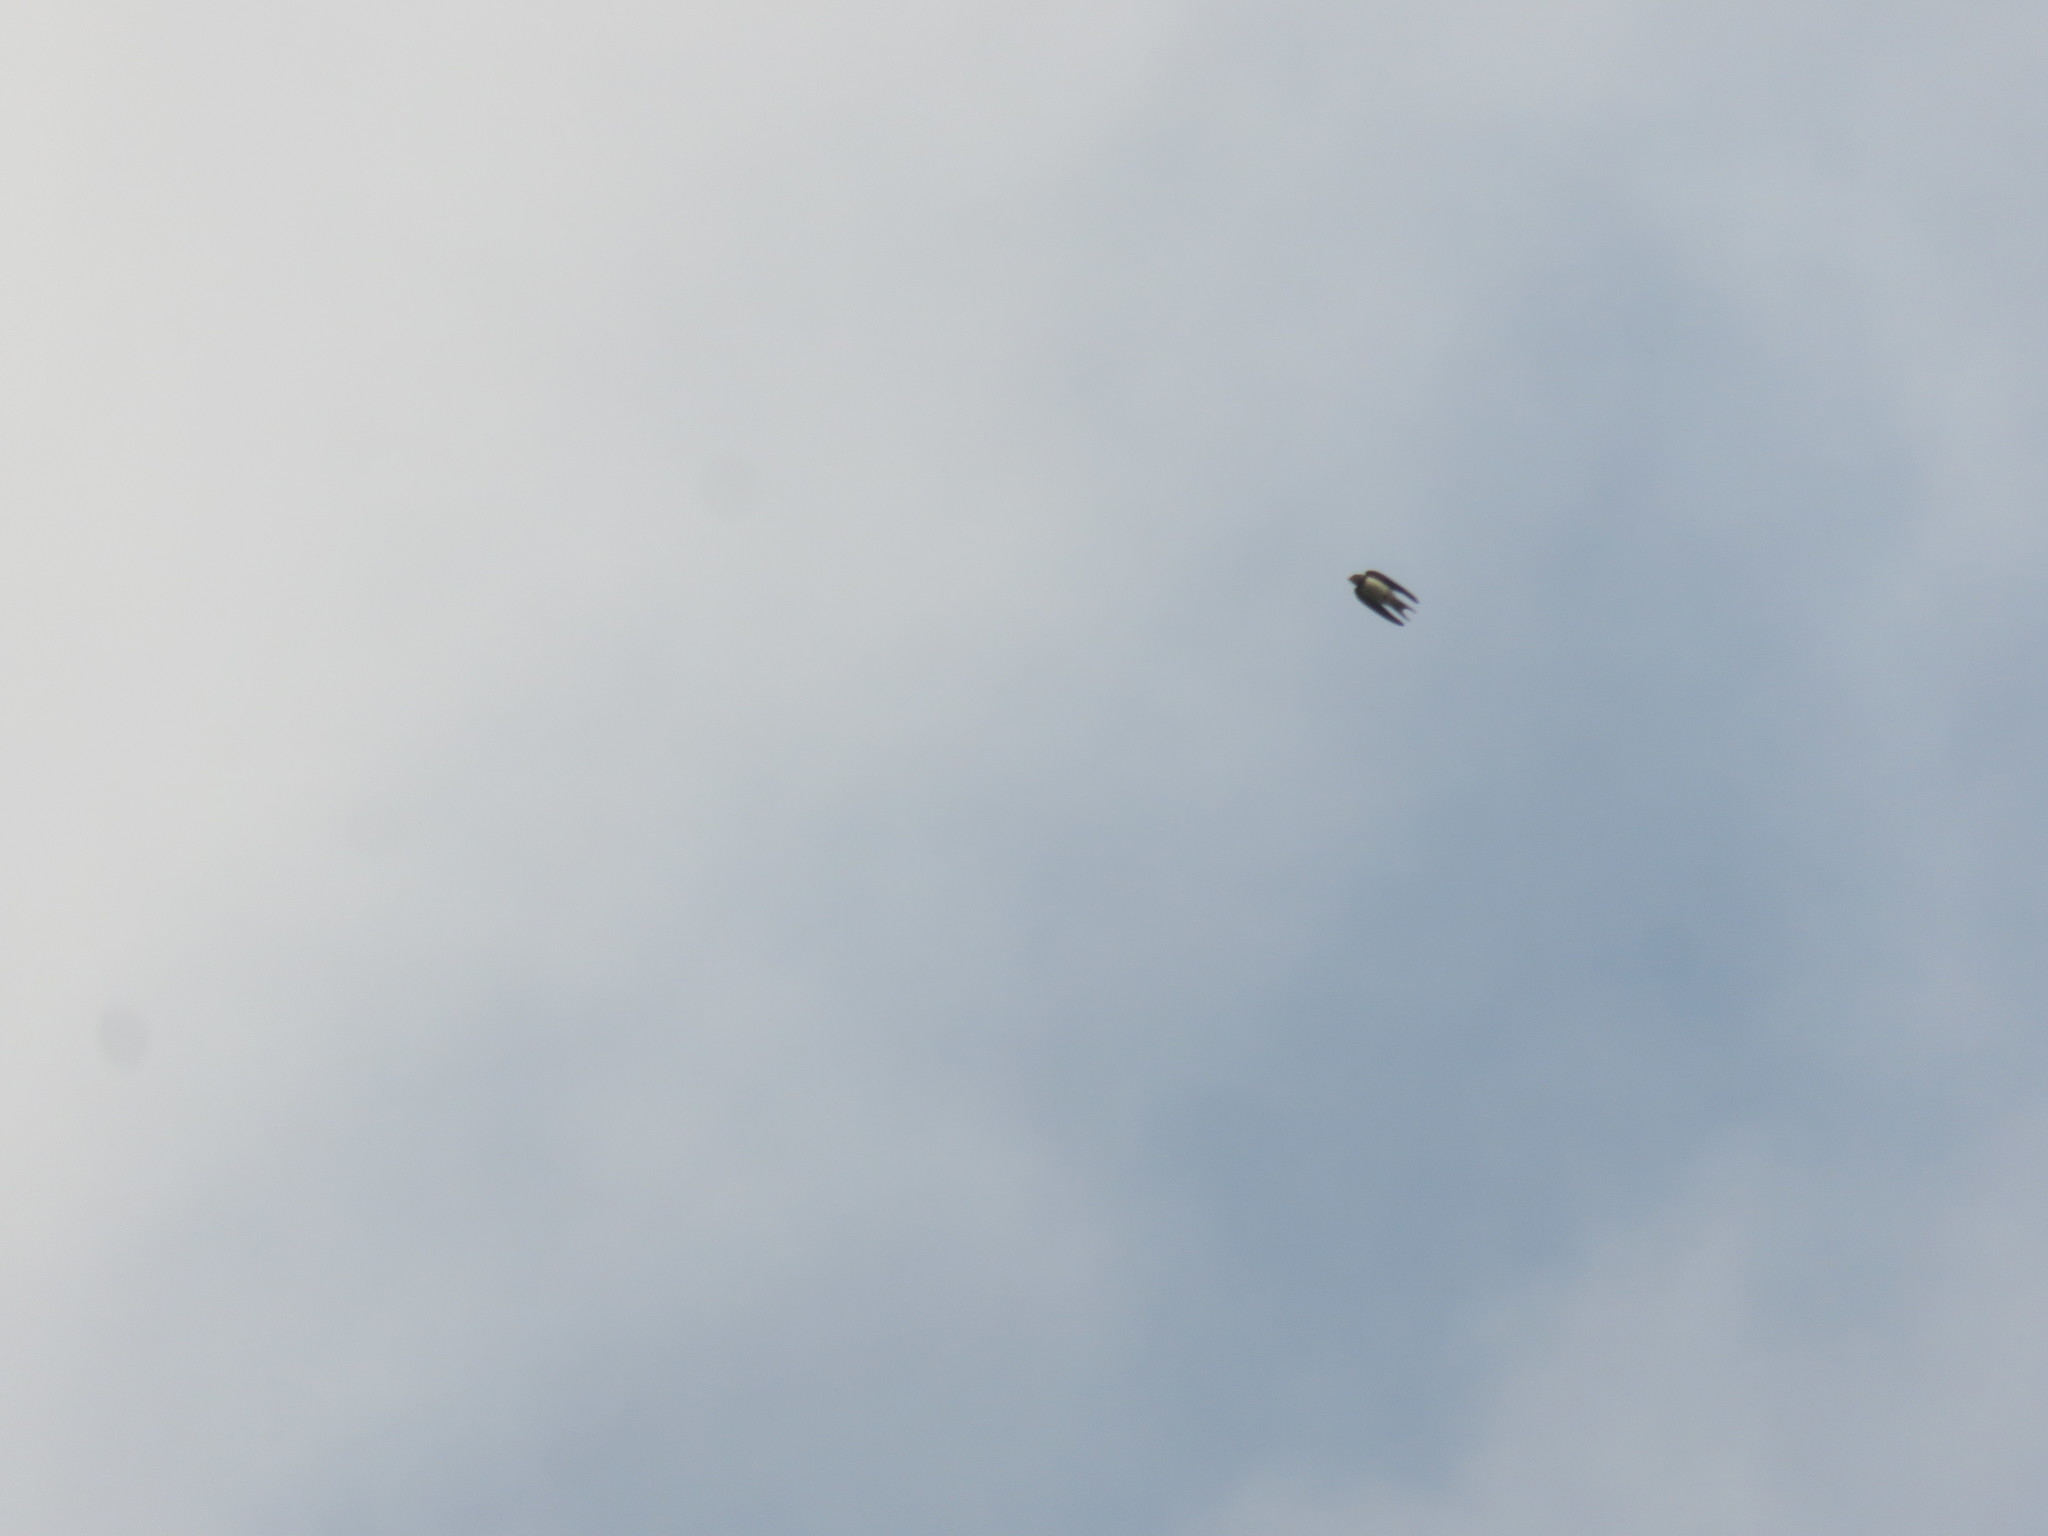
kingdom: Animalia
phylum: Chordata
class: Aves
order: Passeriformes
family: Hirundinidae
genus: Hirundo
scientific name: Hirundo rustica
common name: Barn swallow
